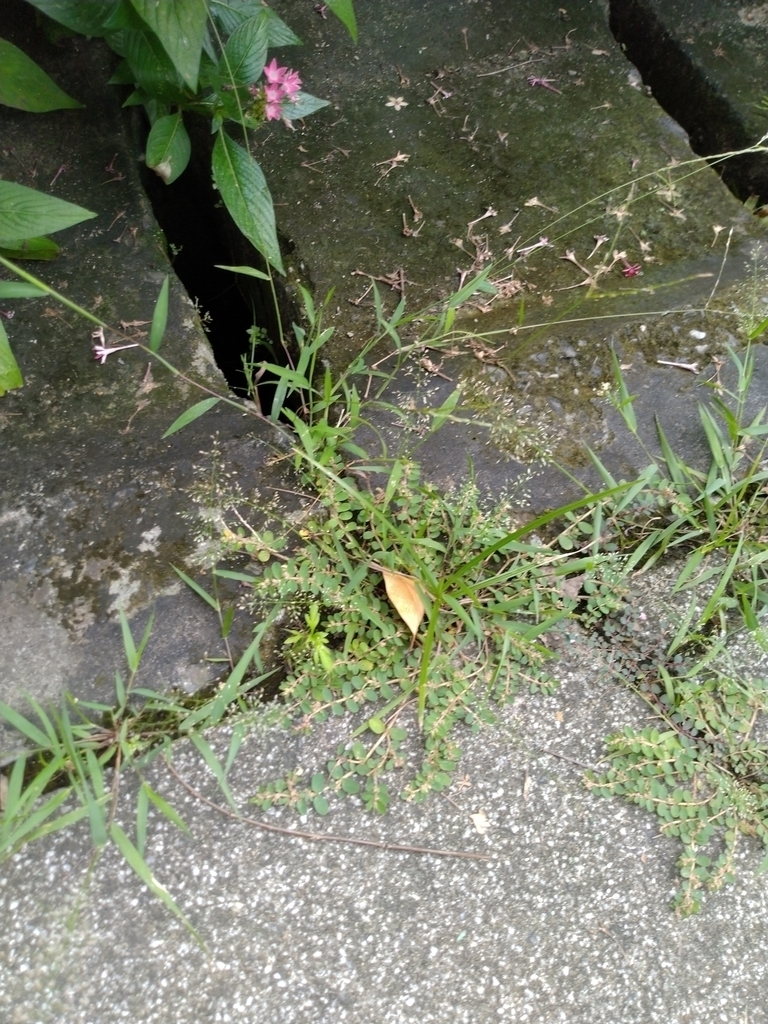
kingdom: Plantae
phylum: Tracheophyta
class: Liliopsida
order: Poales
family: Poaceae
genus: Eragrostis
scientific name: Eragrostis tenella
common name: Japanese lovegrass
